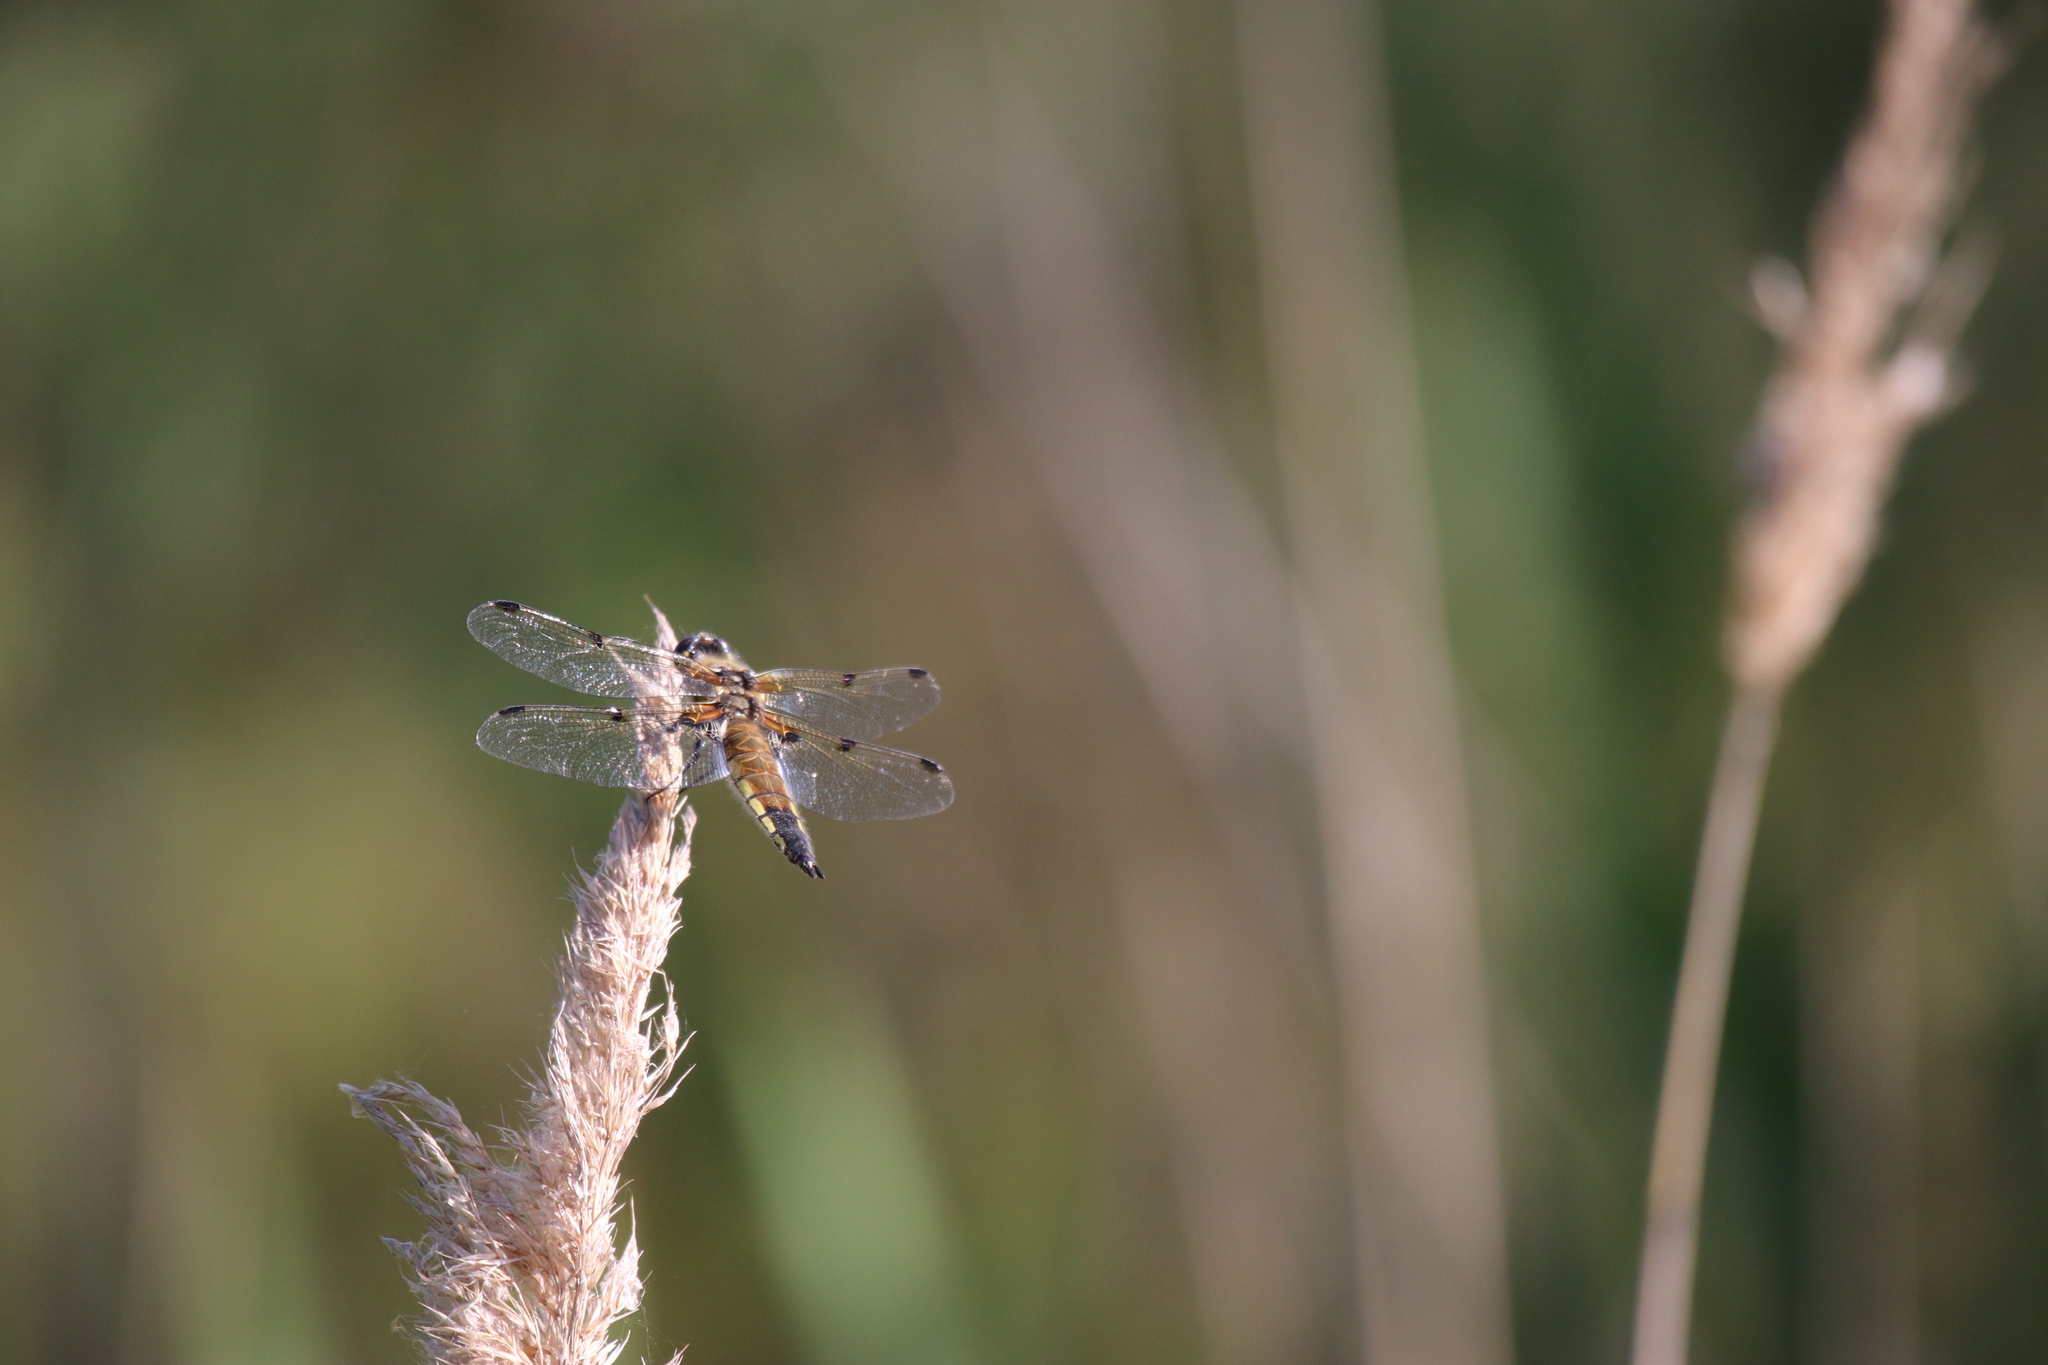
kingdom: Animalia
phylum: Arthropoda
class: Insecta
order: Odonata
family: Libellulidae
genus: Libellula
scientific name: Libellula quadrimaculata
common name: Four-spotted chaser
